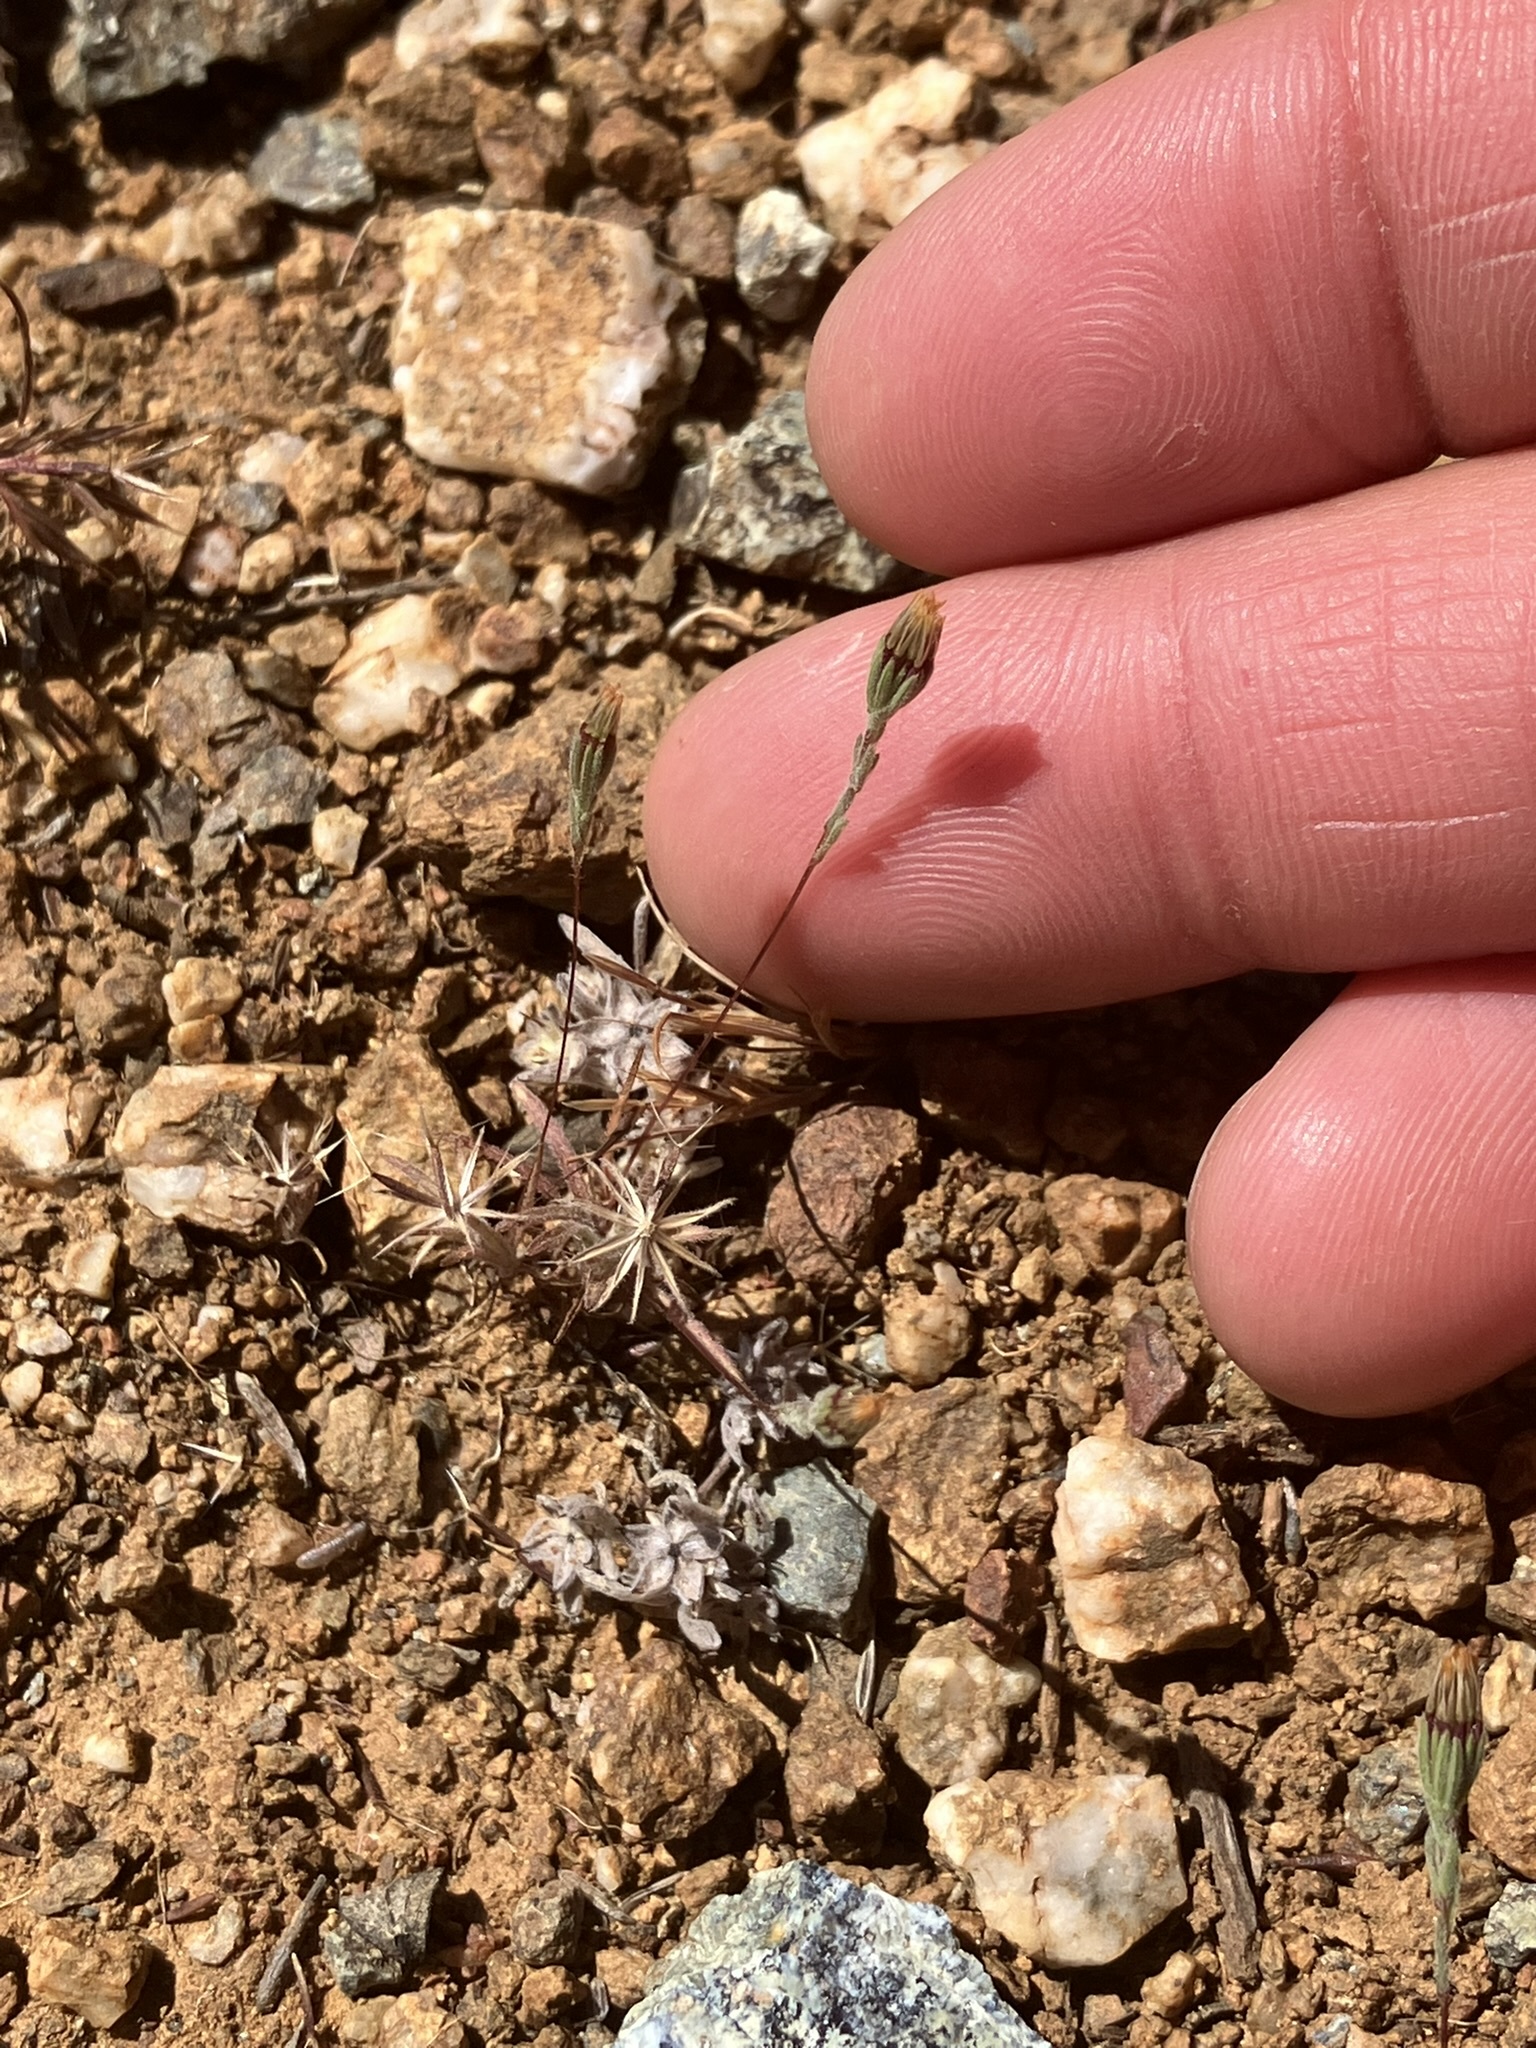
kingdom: Plantae
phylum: Tracheophyta
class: Magnoliopsida
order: Asterales
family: Asteraceae
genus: Rigiopappus
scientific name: Rigiopappus leptocladus
